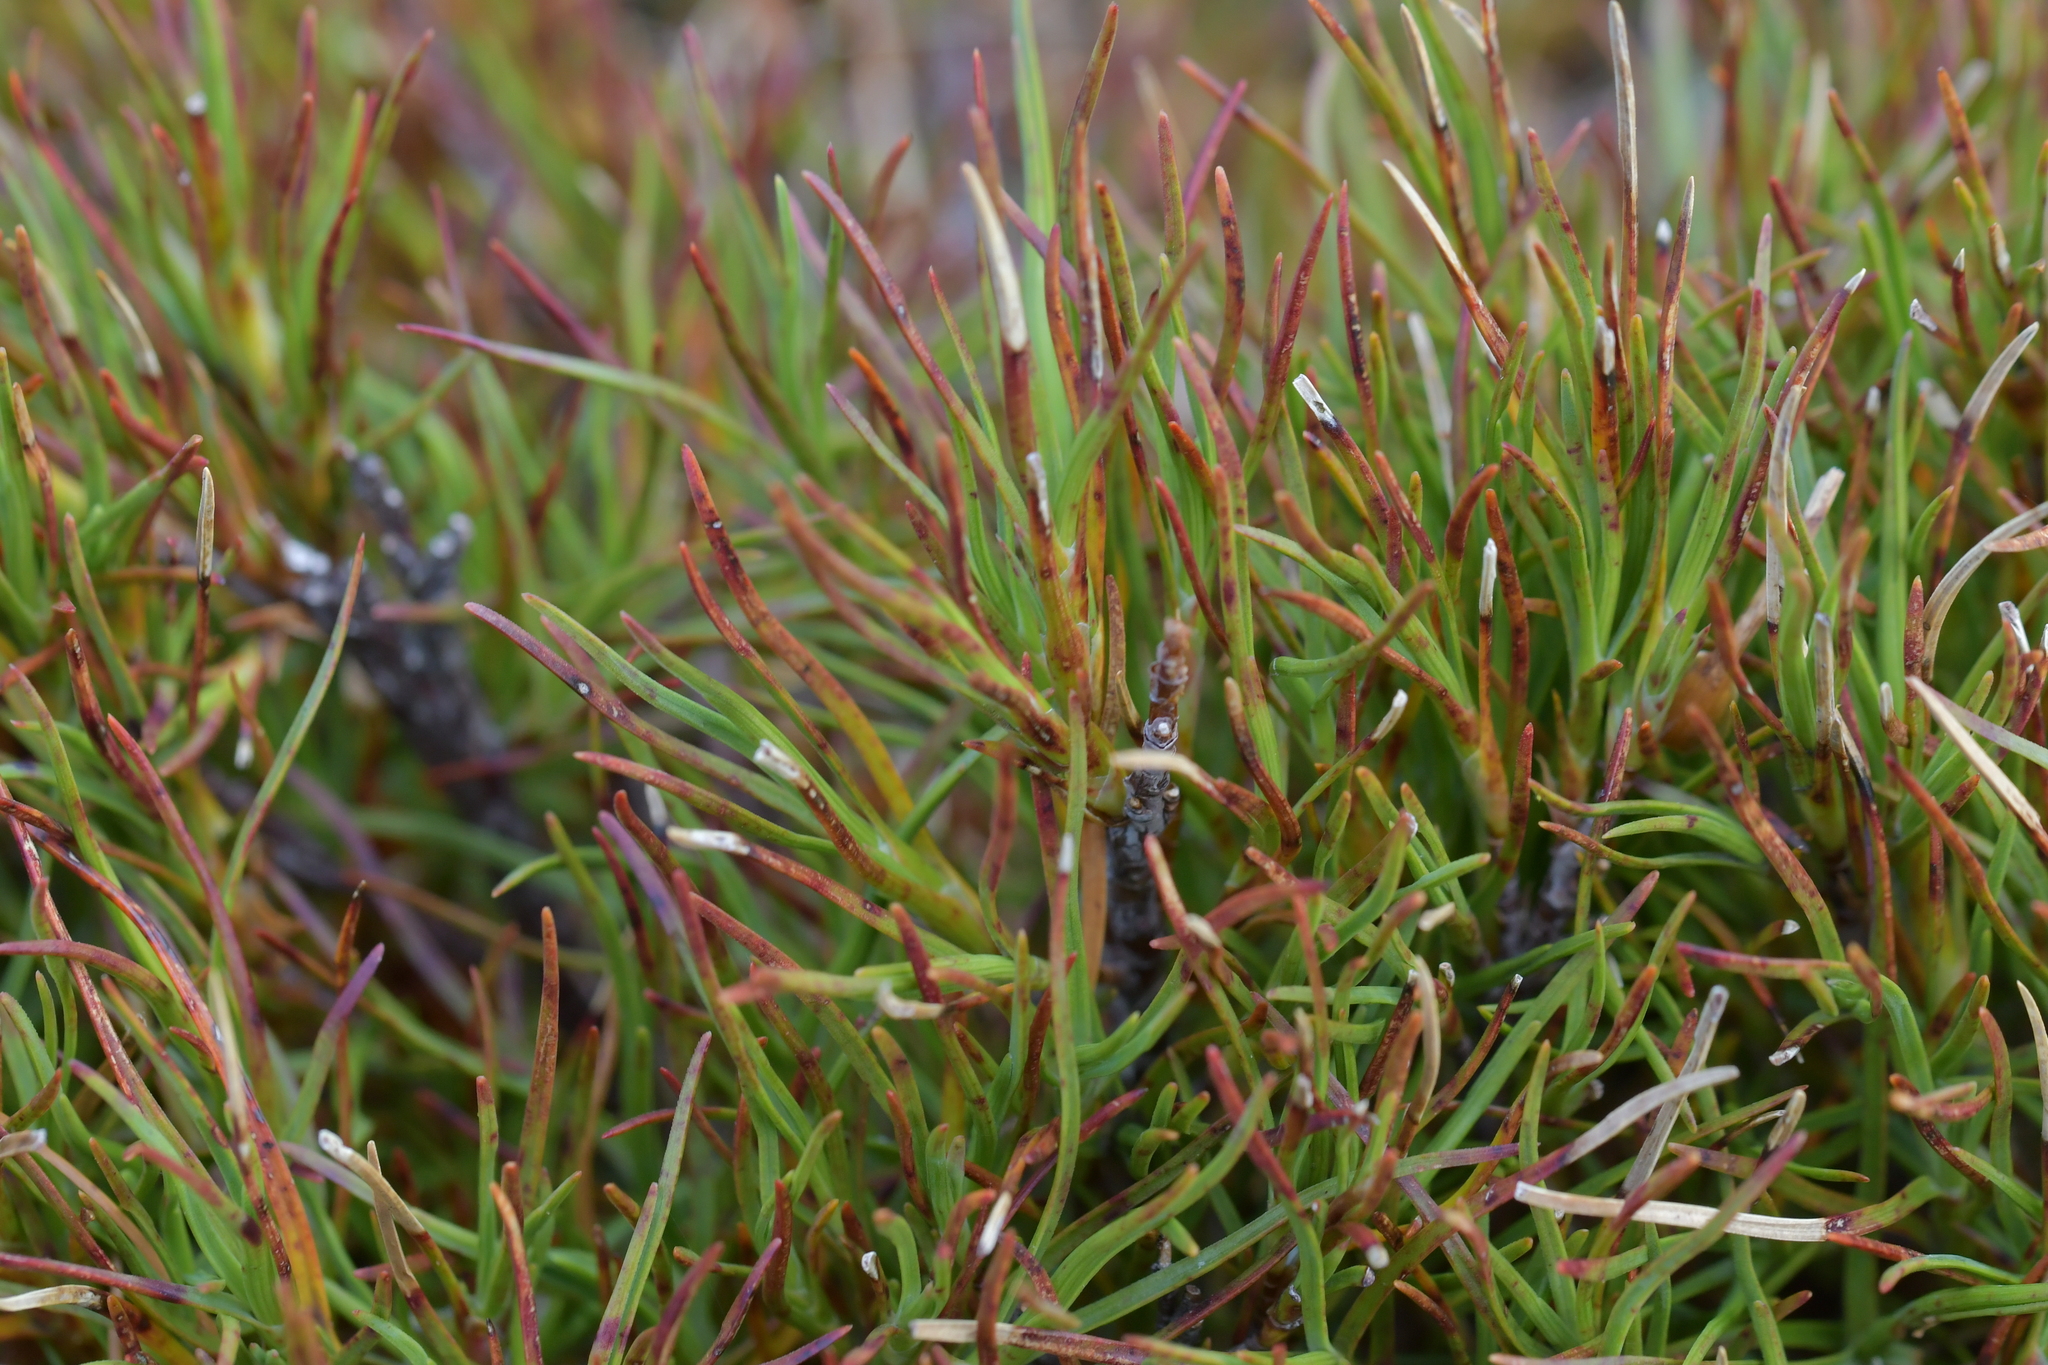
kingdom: Plantae
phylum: Tracheophyta
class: Magnoliopsida
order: Ericales
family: Ericaceae
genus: Dracophyllum
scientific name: Dracophyllum rosmarinifolium
